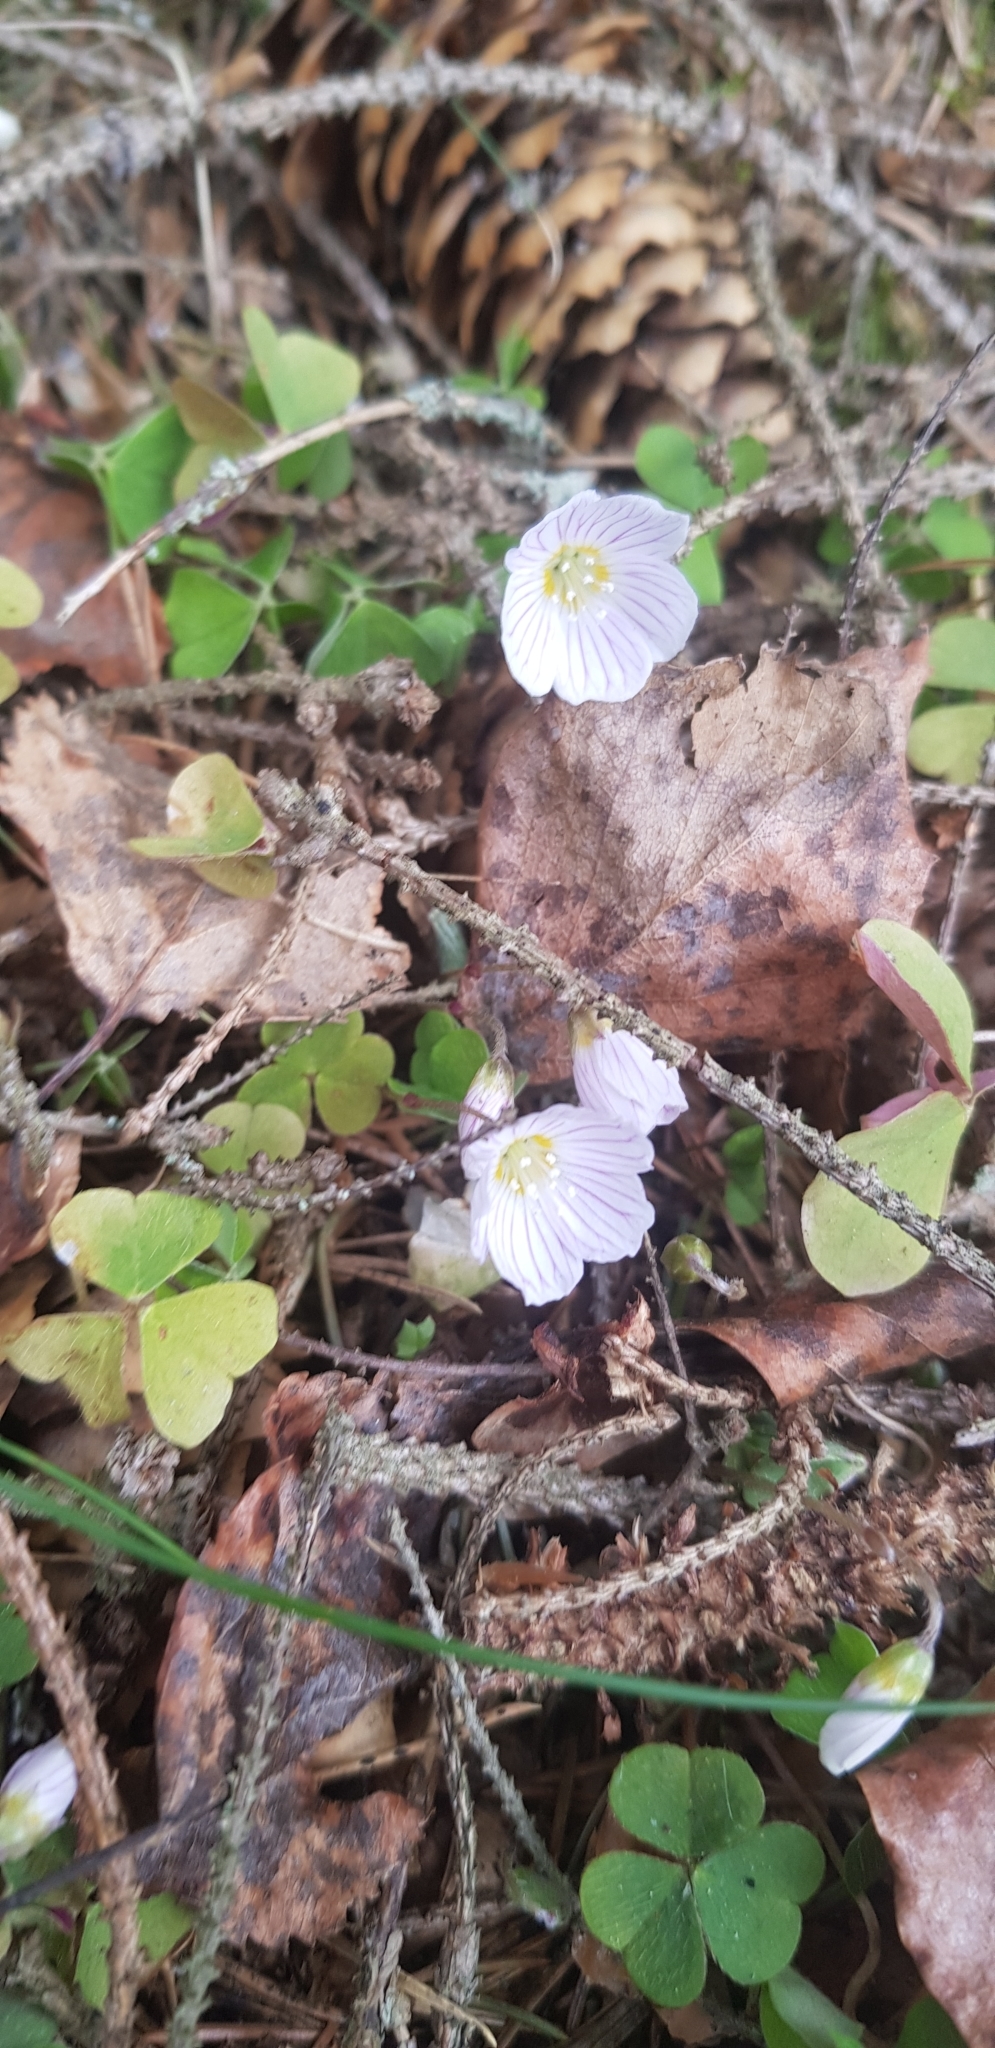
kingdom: Plantae
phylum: Tracheophyta
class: Magnoliopsida
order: Oxalidales
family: Oxalidaceae
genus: Oxalis
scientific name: Oxalis acetosella
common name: Wood-sorrel
